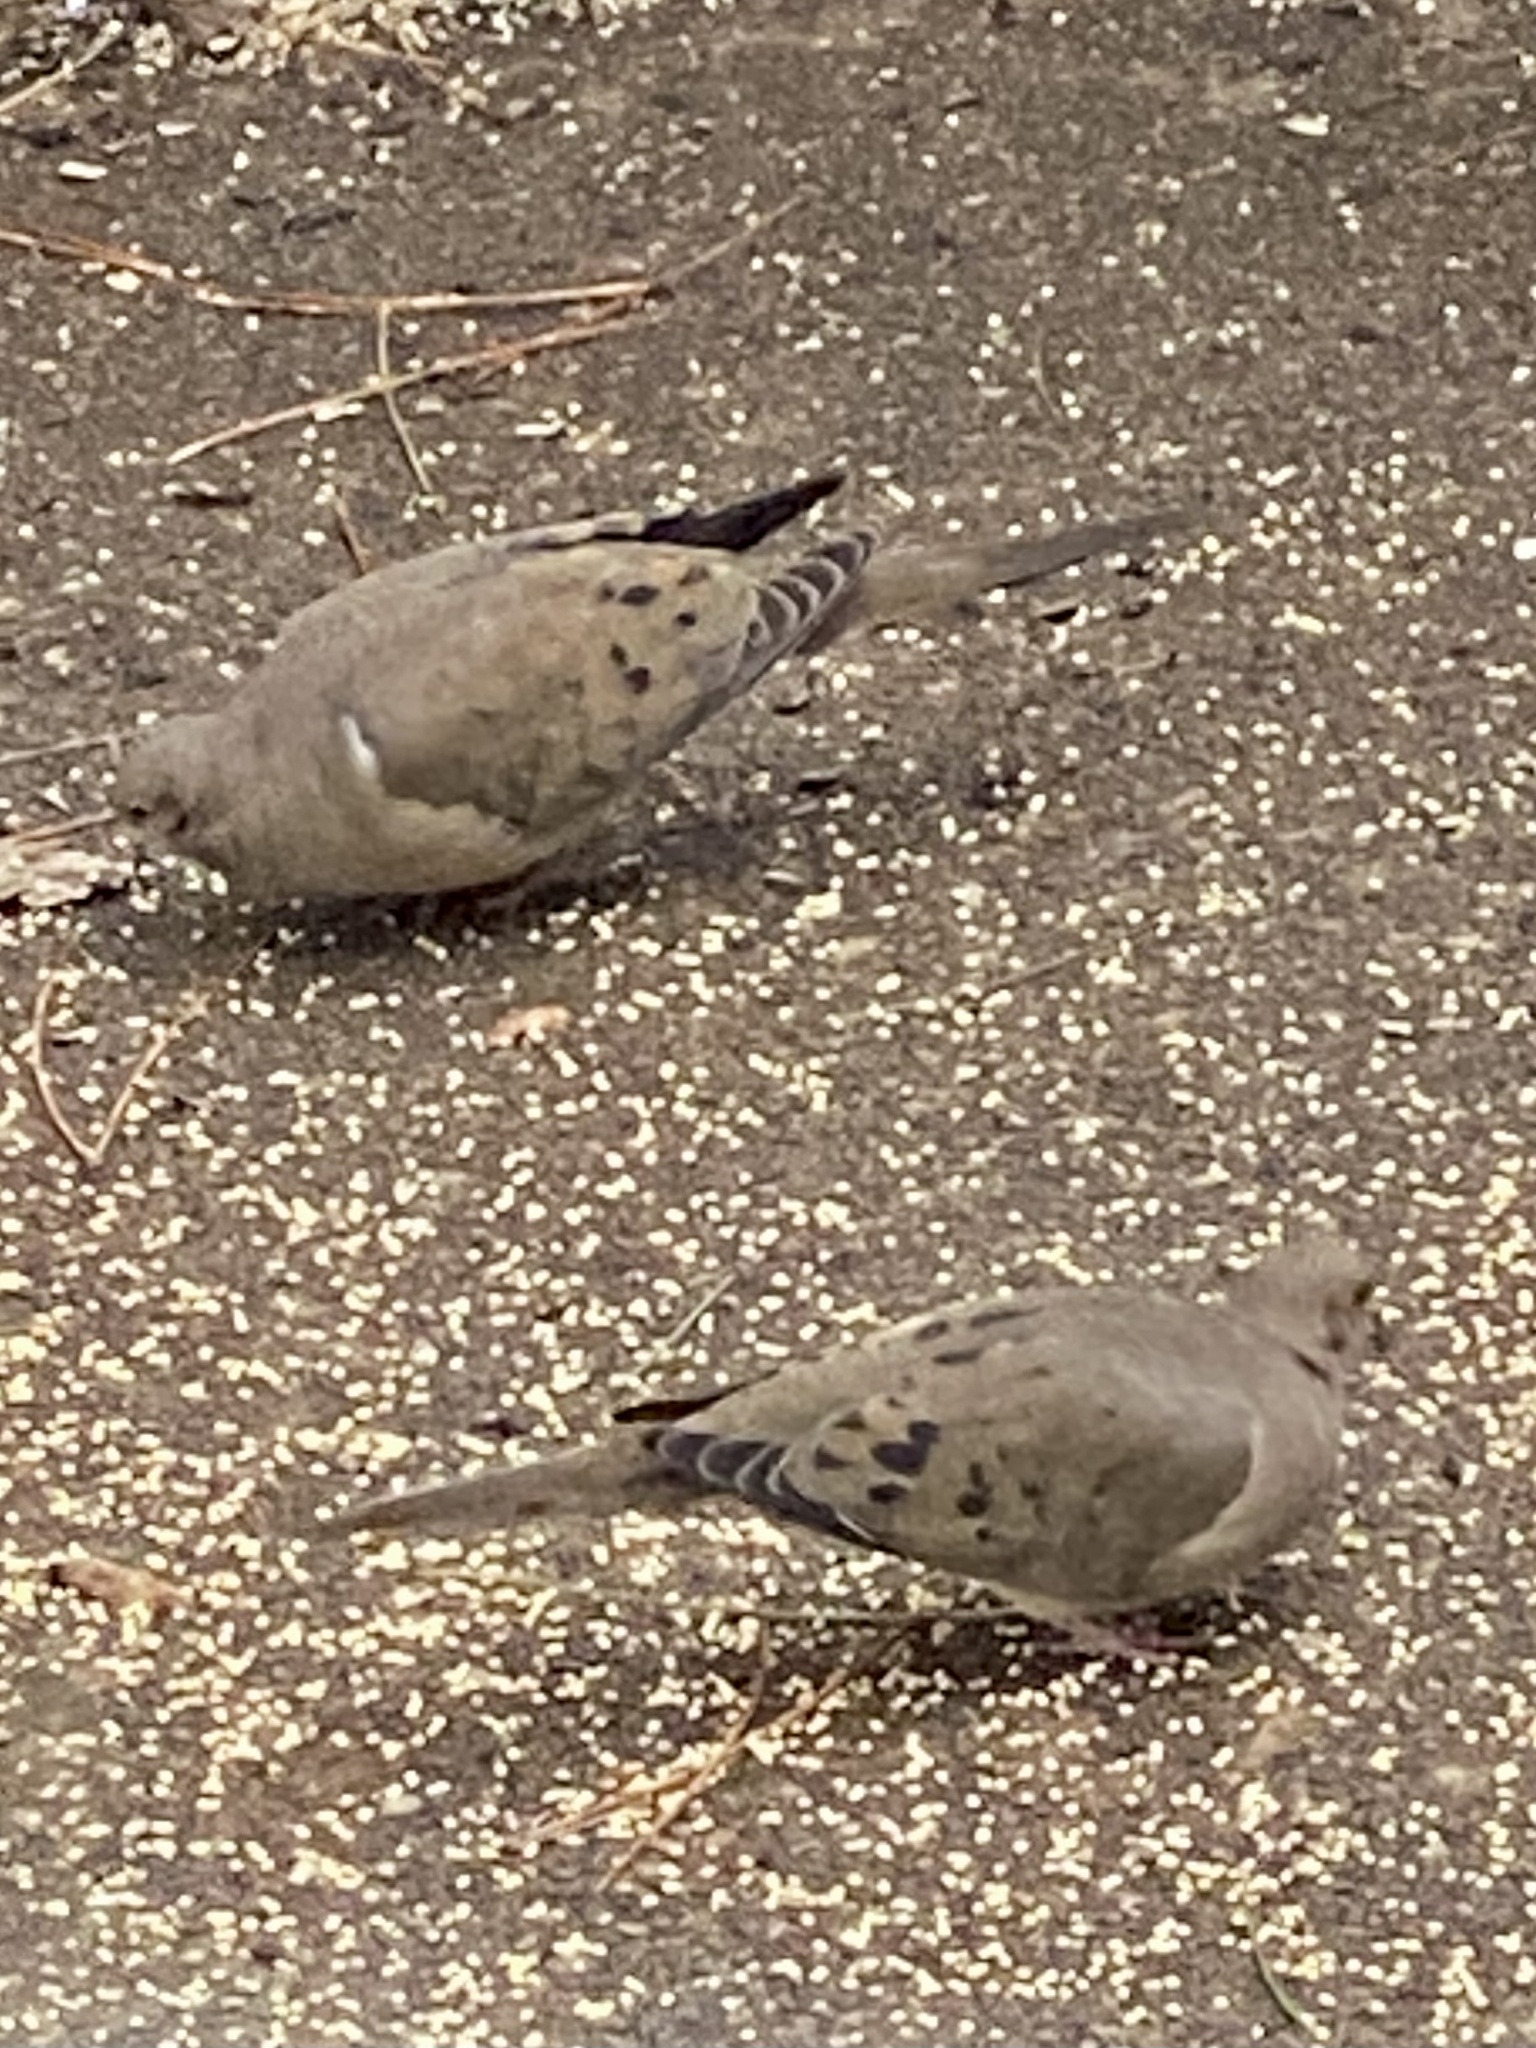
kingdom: Animalia
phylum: Chordata
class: Aves
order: Columbiformes
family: Columbidae
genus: Zenaida
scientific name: Zenaida macroura
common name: Mourning dove
